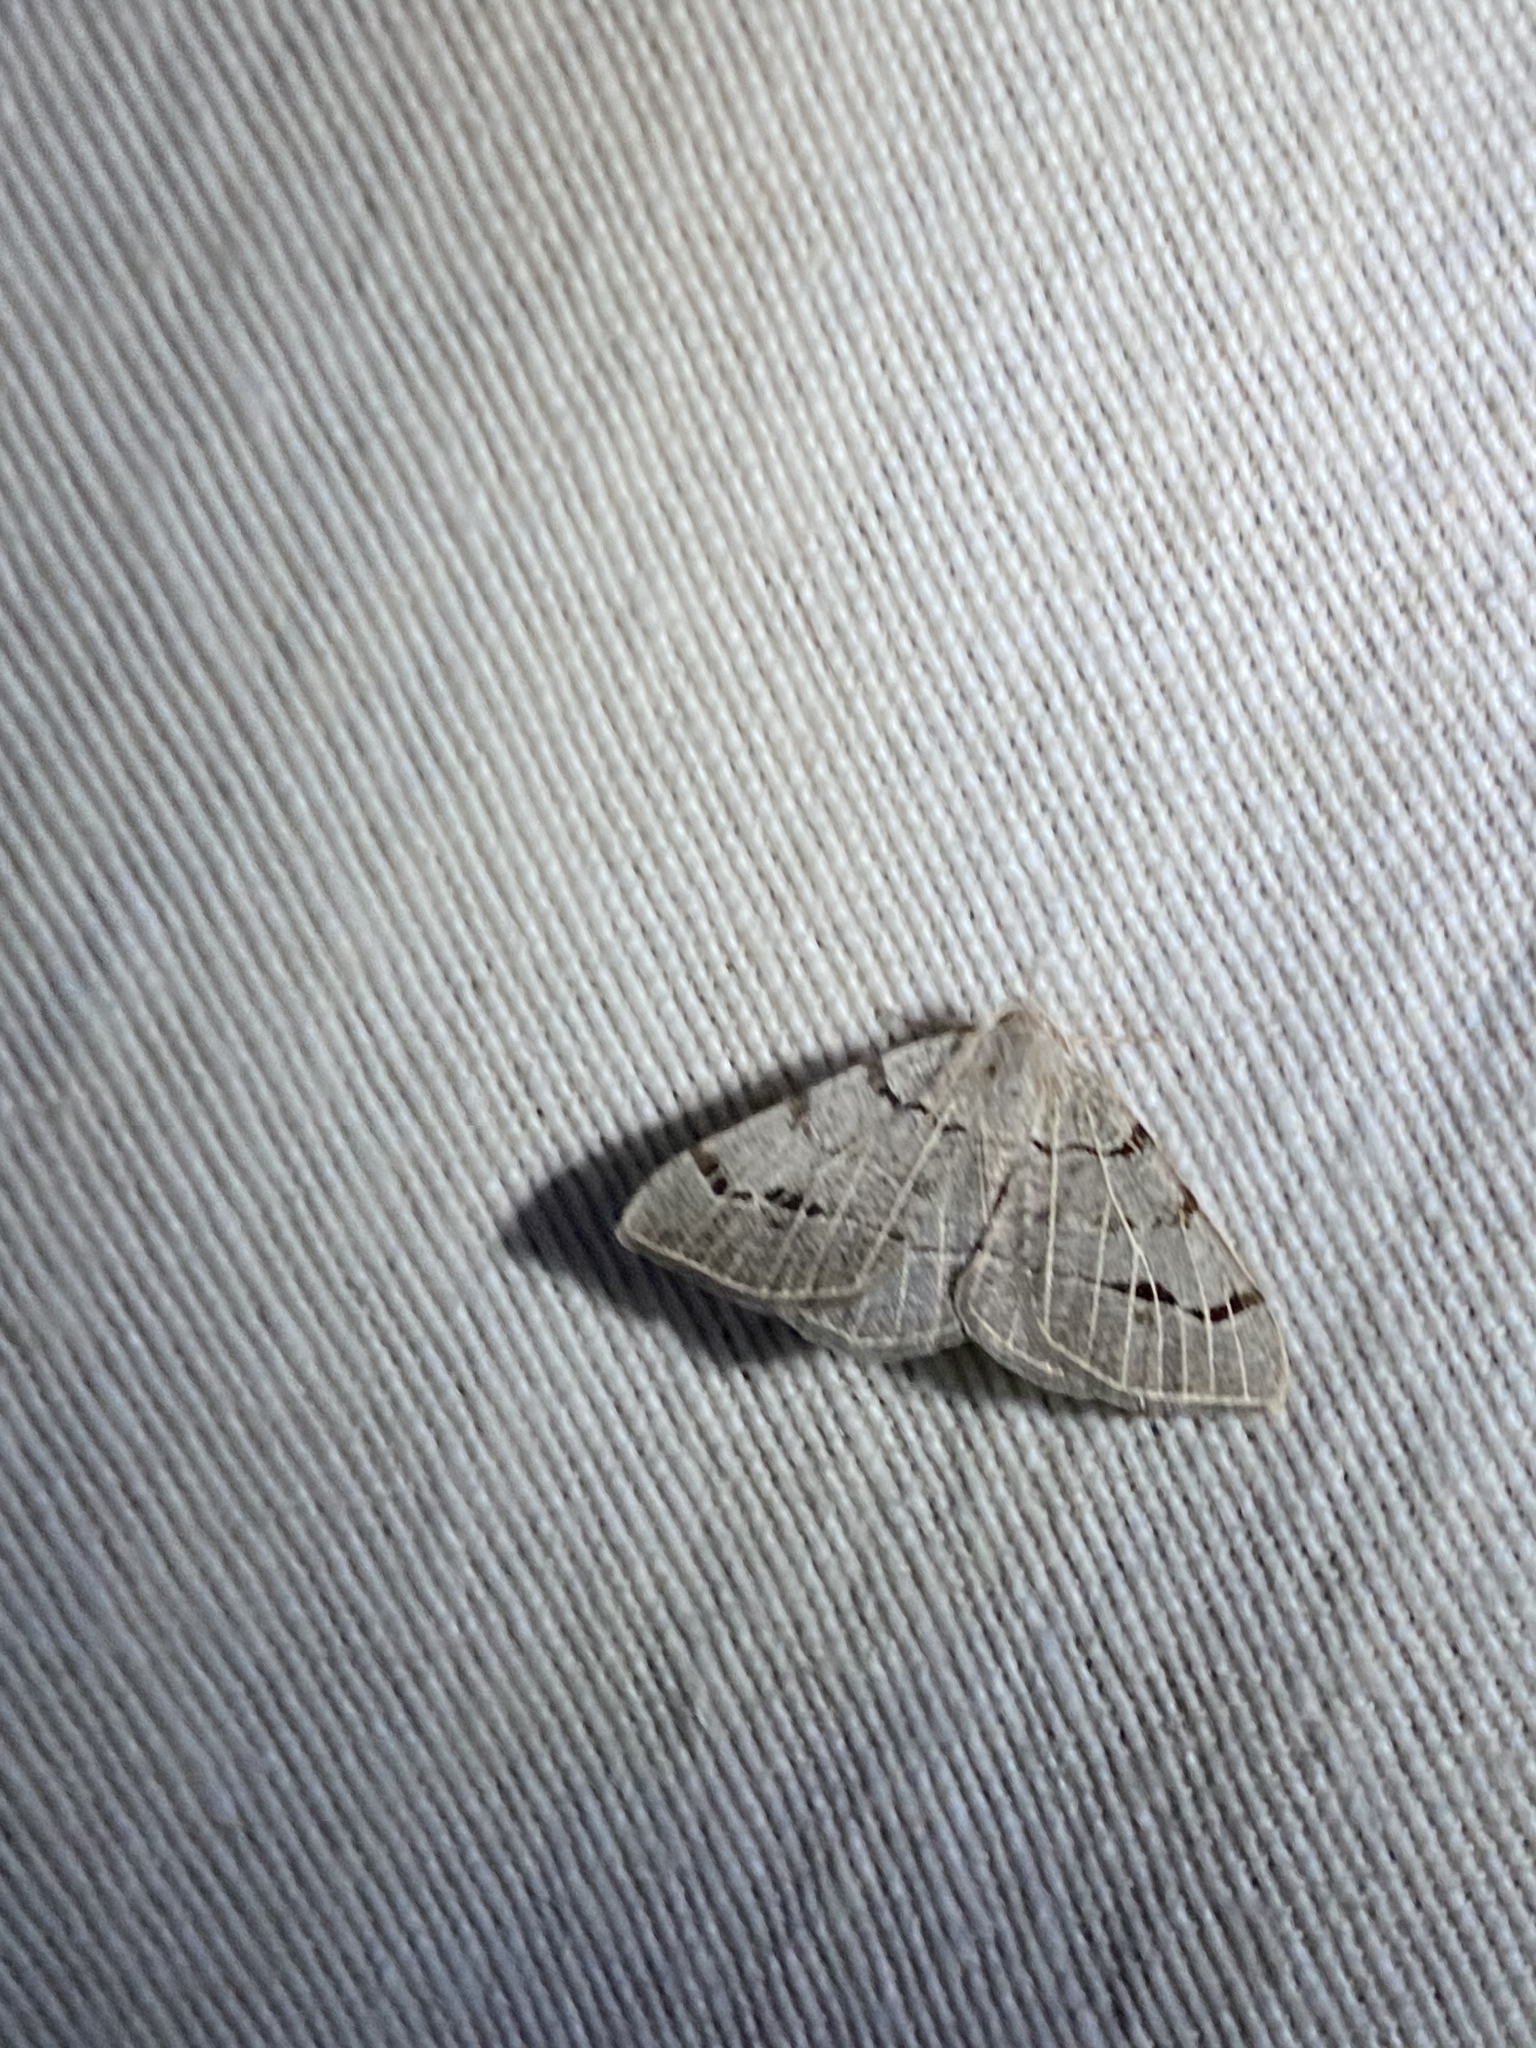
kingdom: Animalia
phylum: Arthropoda
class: Insecta
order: Lepidoptera
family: Geometridae
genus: Isturgia
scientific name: Isturgia dislocaria
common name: Pale-viened enconista
